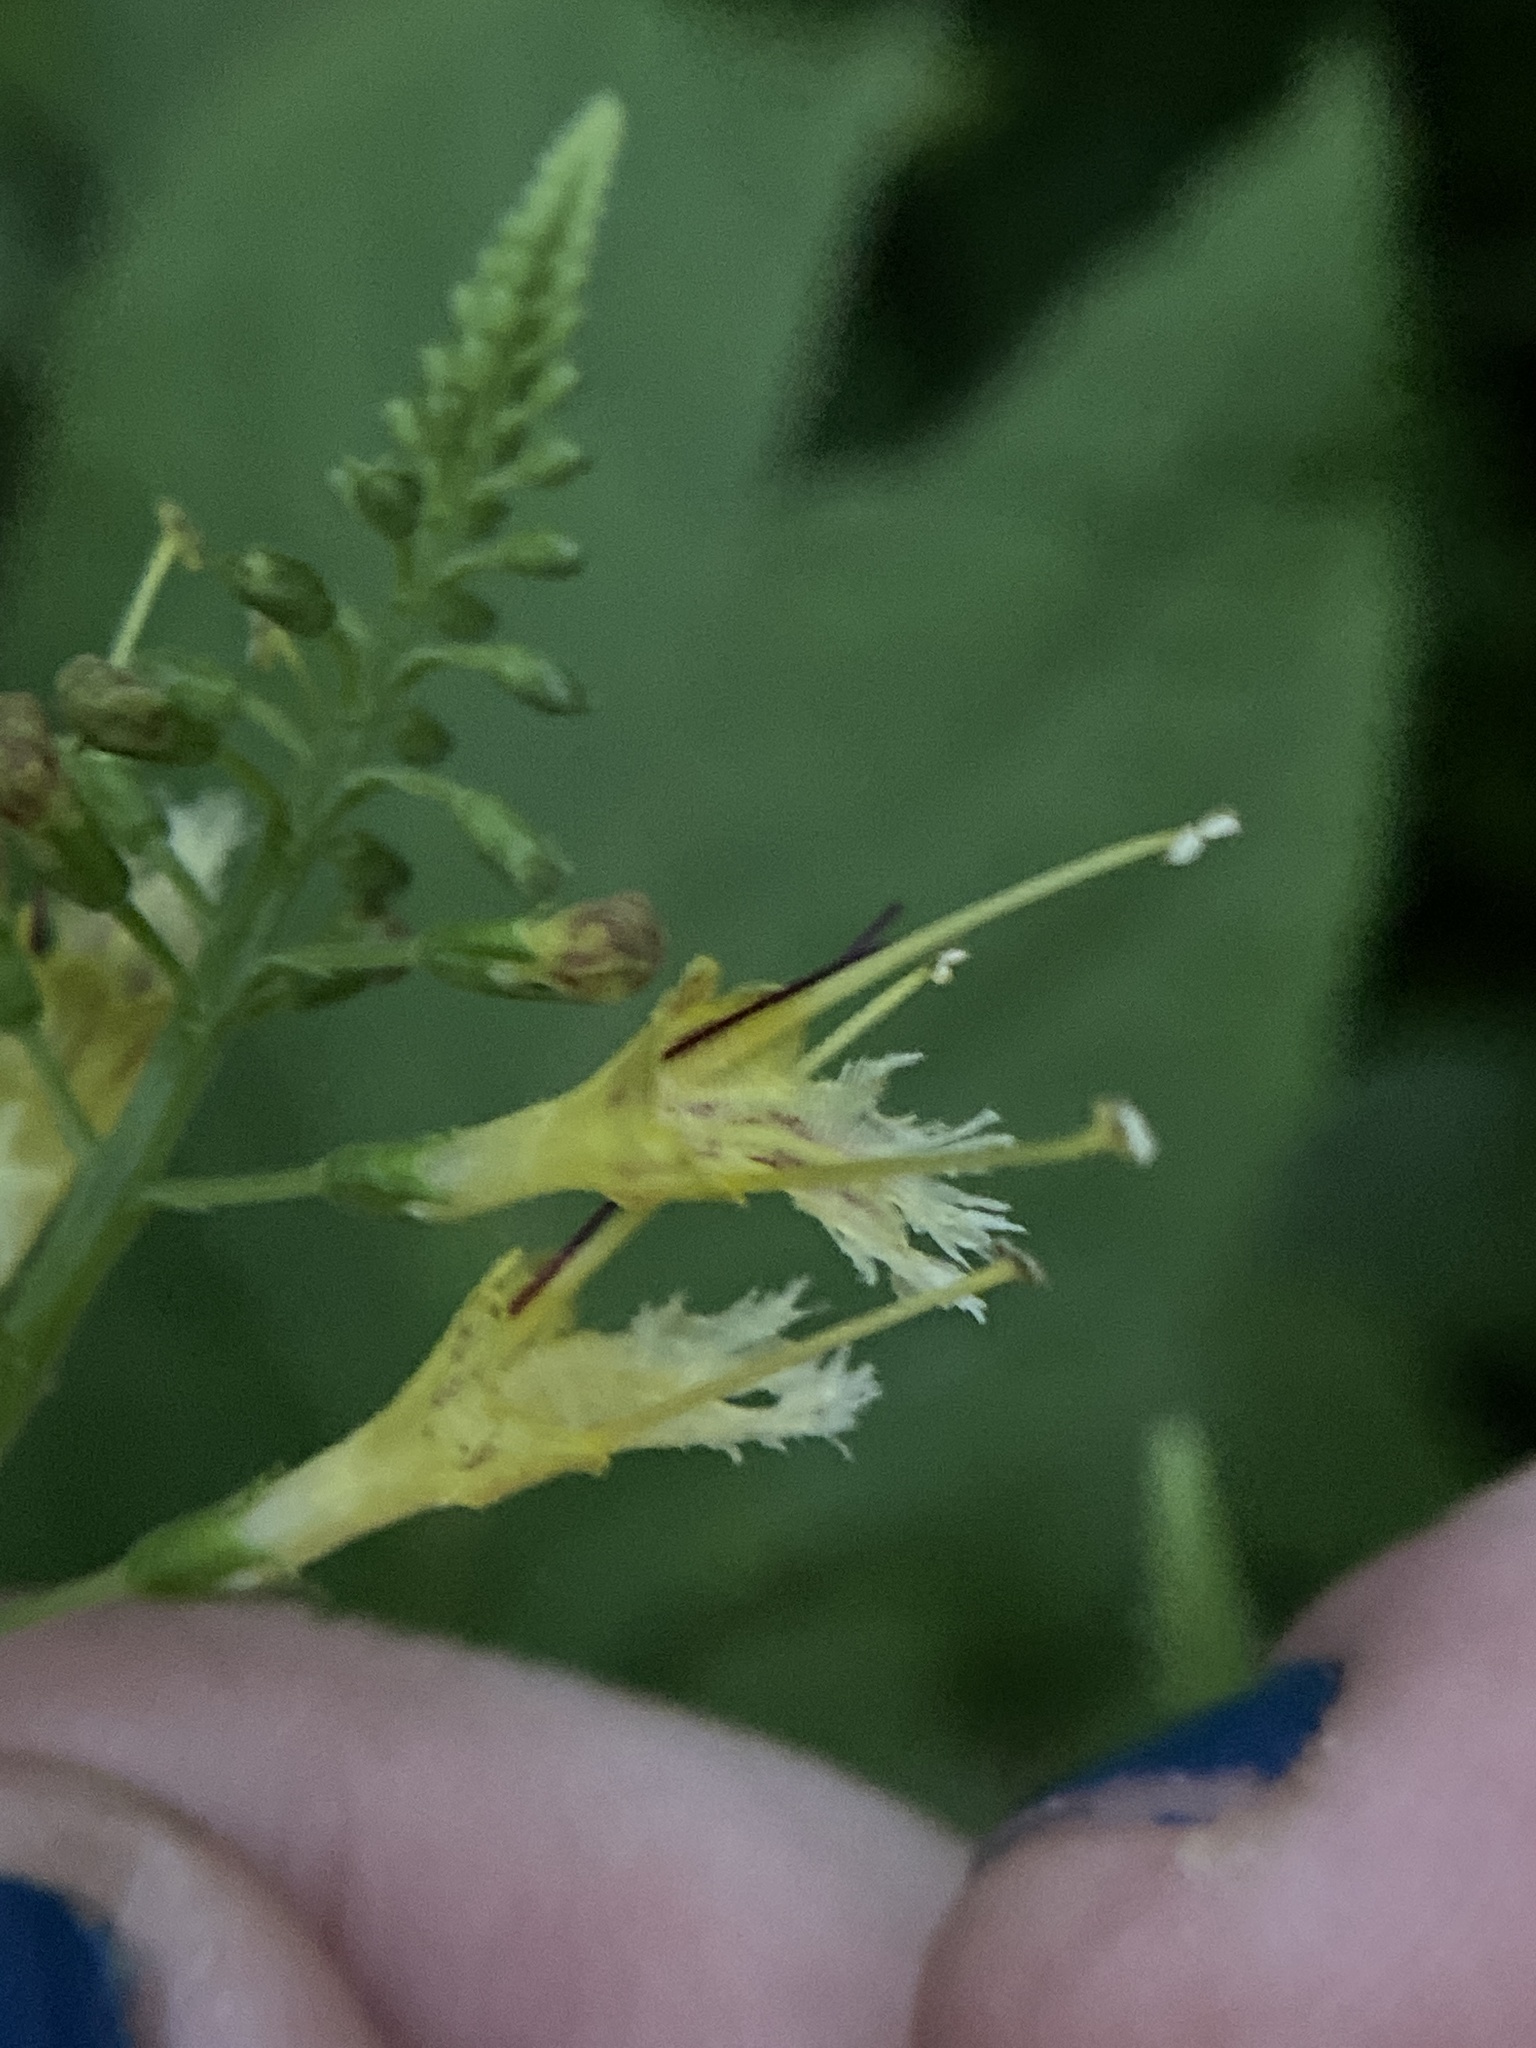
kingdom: Plantae
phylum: Tracheophyta
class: Magnoliopsida
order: Lamiales
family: Lamiaceae
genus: Collinsonia
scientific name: Collinsonia canadensis
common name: Northern horsebalm
